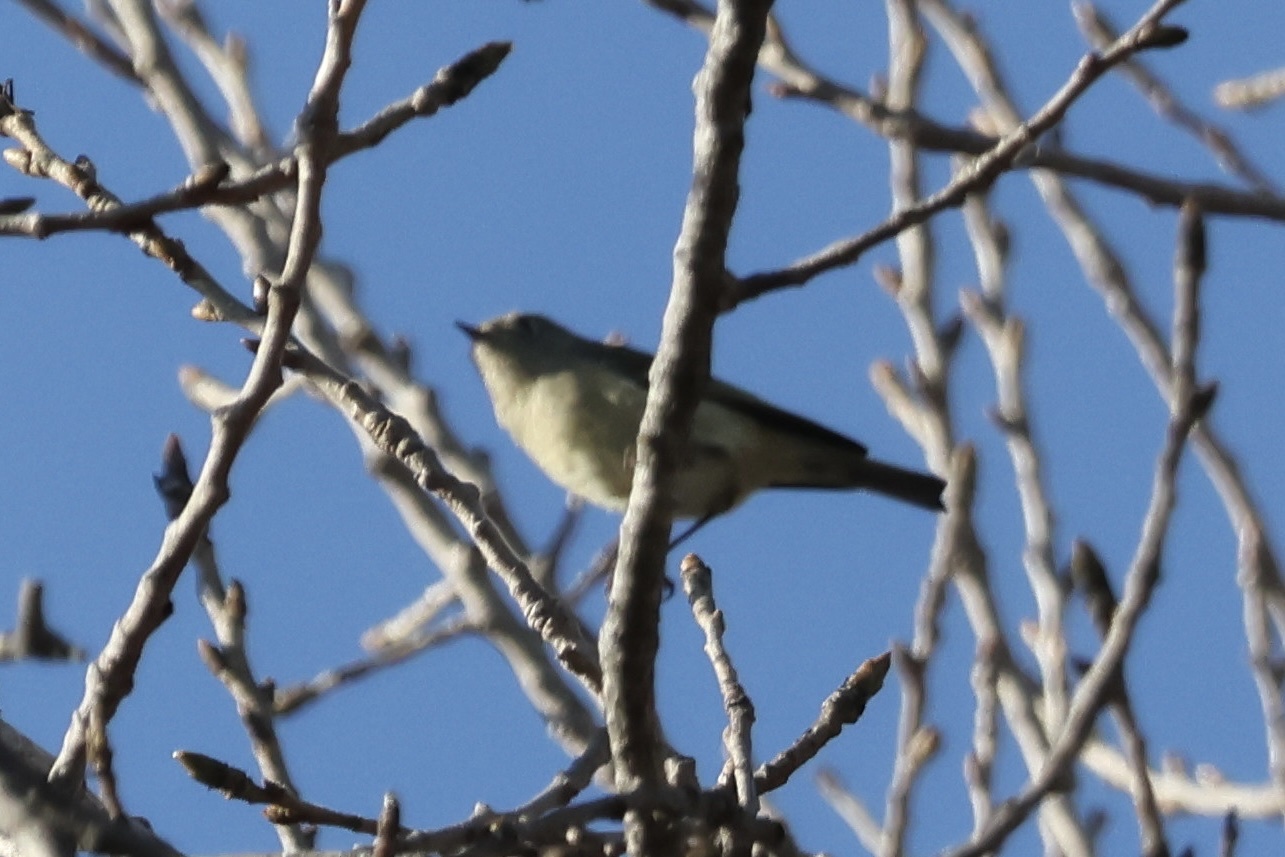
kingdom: Animalia
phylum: Chordata
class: Aves
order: Passeriformes
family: Regulidae
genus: Regulus
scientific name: Regulus calendula
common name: Ruby-crowned kinglet
